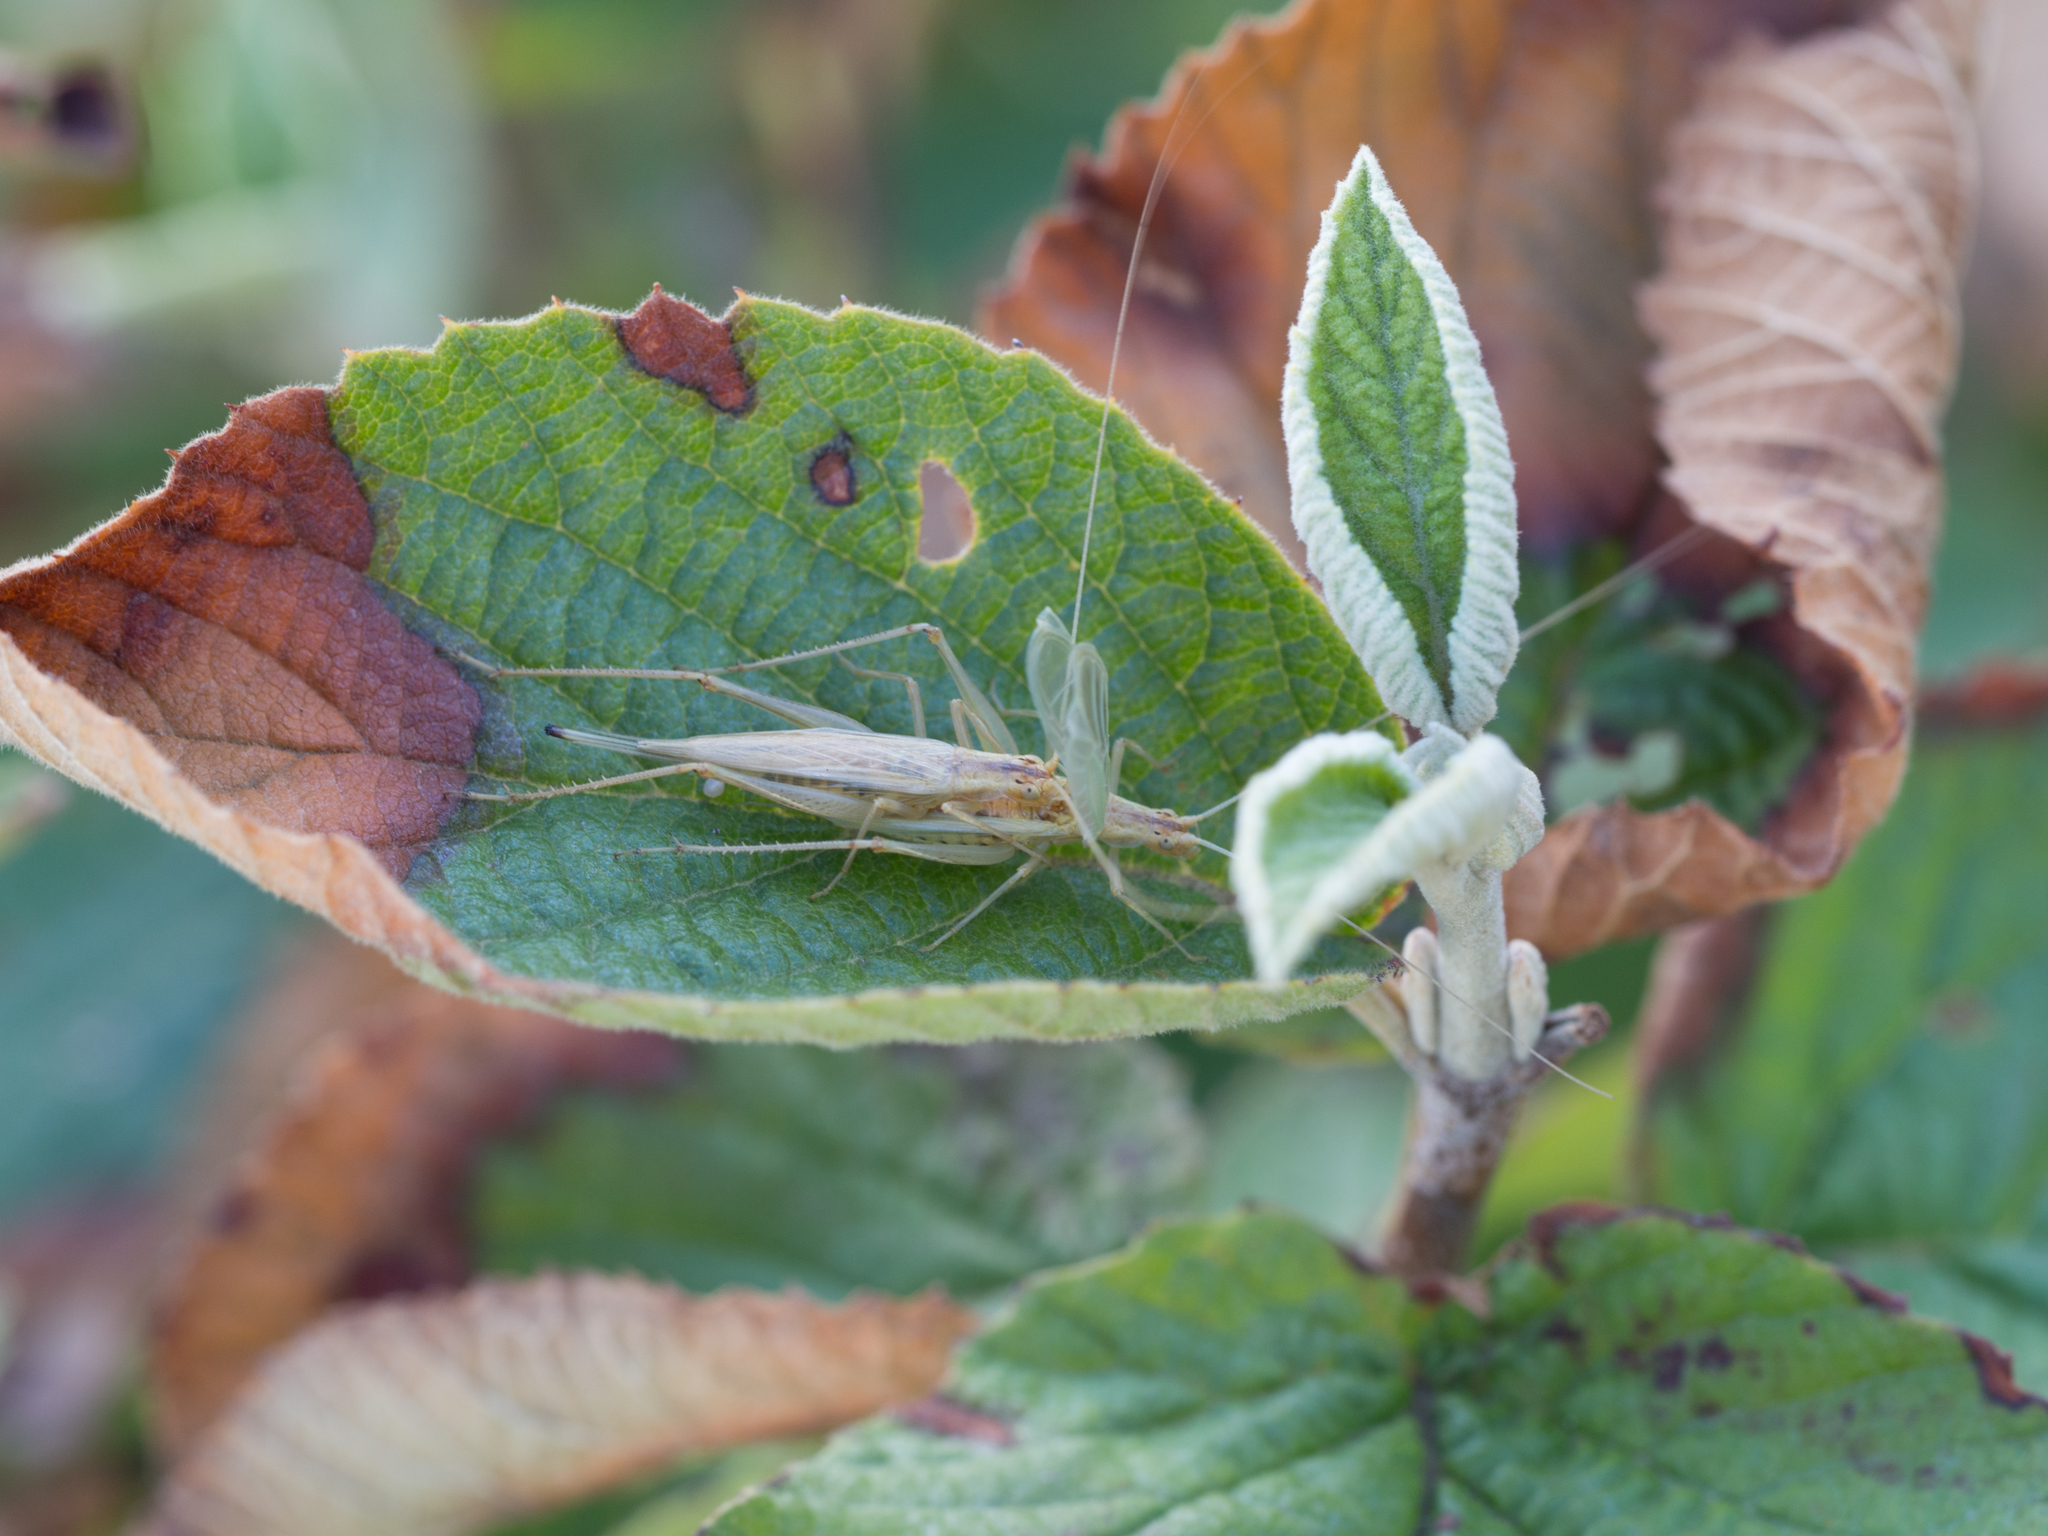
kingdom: Animalia
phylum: Arthropoda
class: Insecta
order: Orthoptera
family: Gryllidae
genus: Oecanthus
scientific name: Oecanthus pellucens
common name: Tree-cricket
